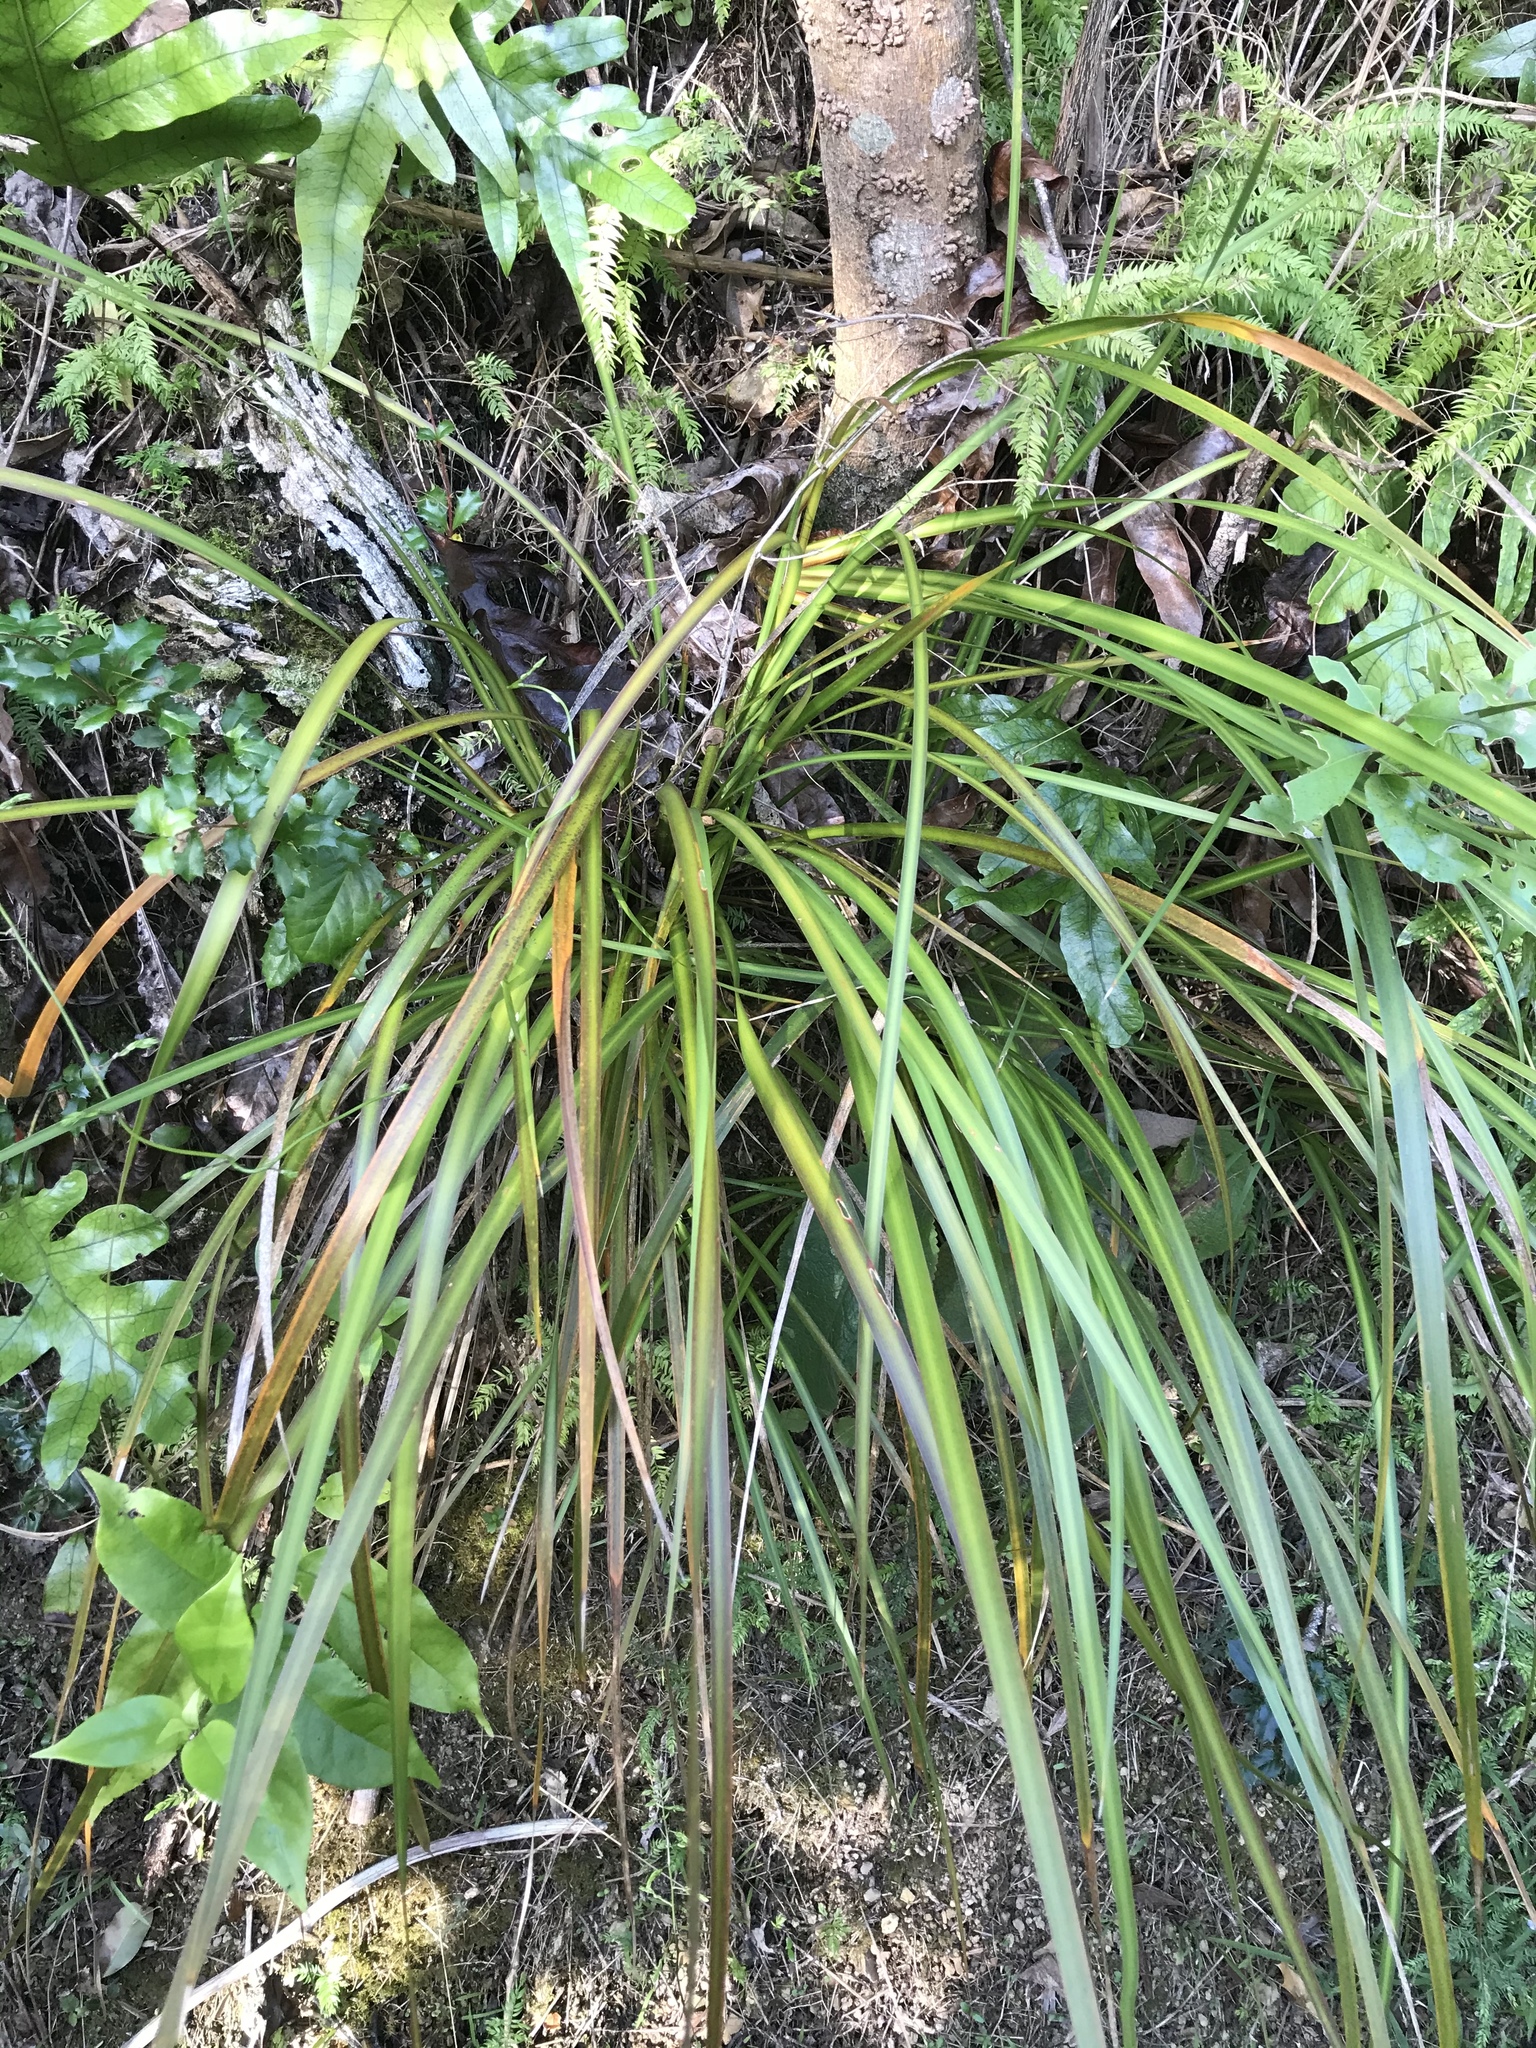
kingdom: Plantae
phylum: Tracheophyta
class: Liliopsida
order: Asparagales
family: Iridaceae
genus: Libertia
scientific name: Libertia ixioides
